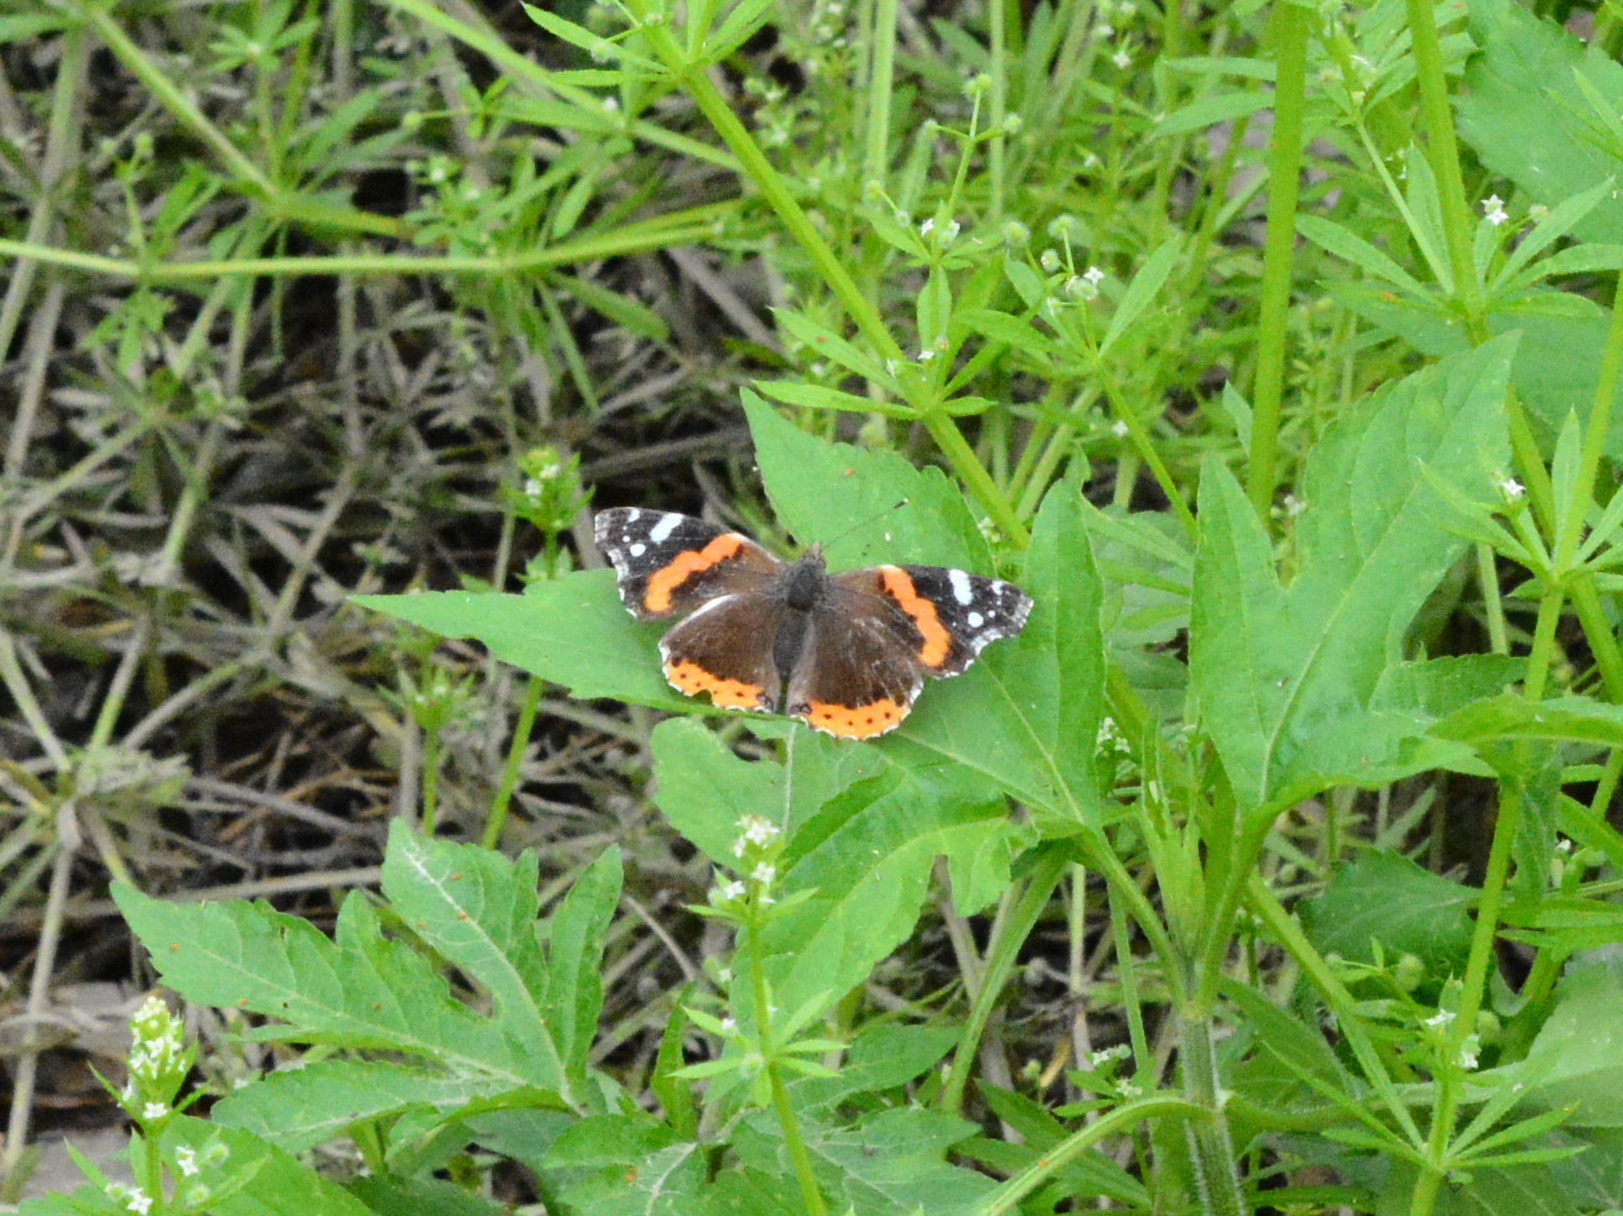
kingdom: Animalia
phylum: Arthropoda
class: Insecta
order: Lepidoptera
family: Nymphalidae
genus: Vanessa
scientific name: Vanessa atalanta
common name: Red admiral
